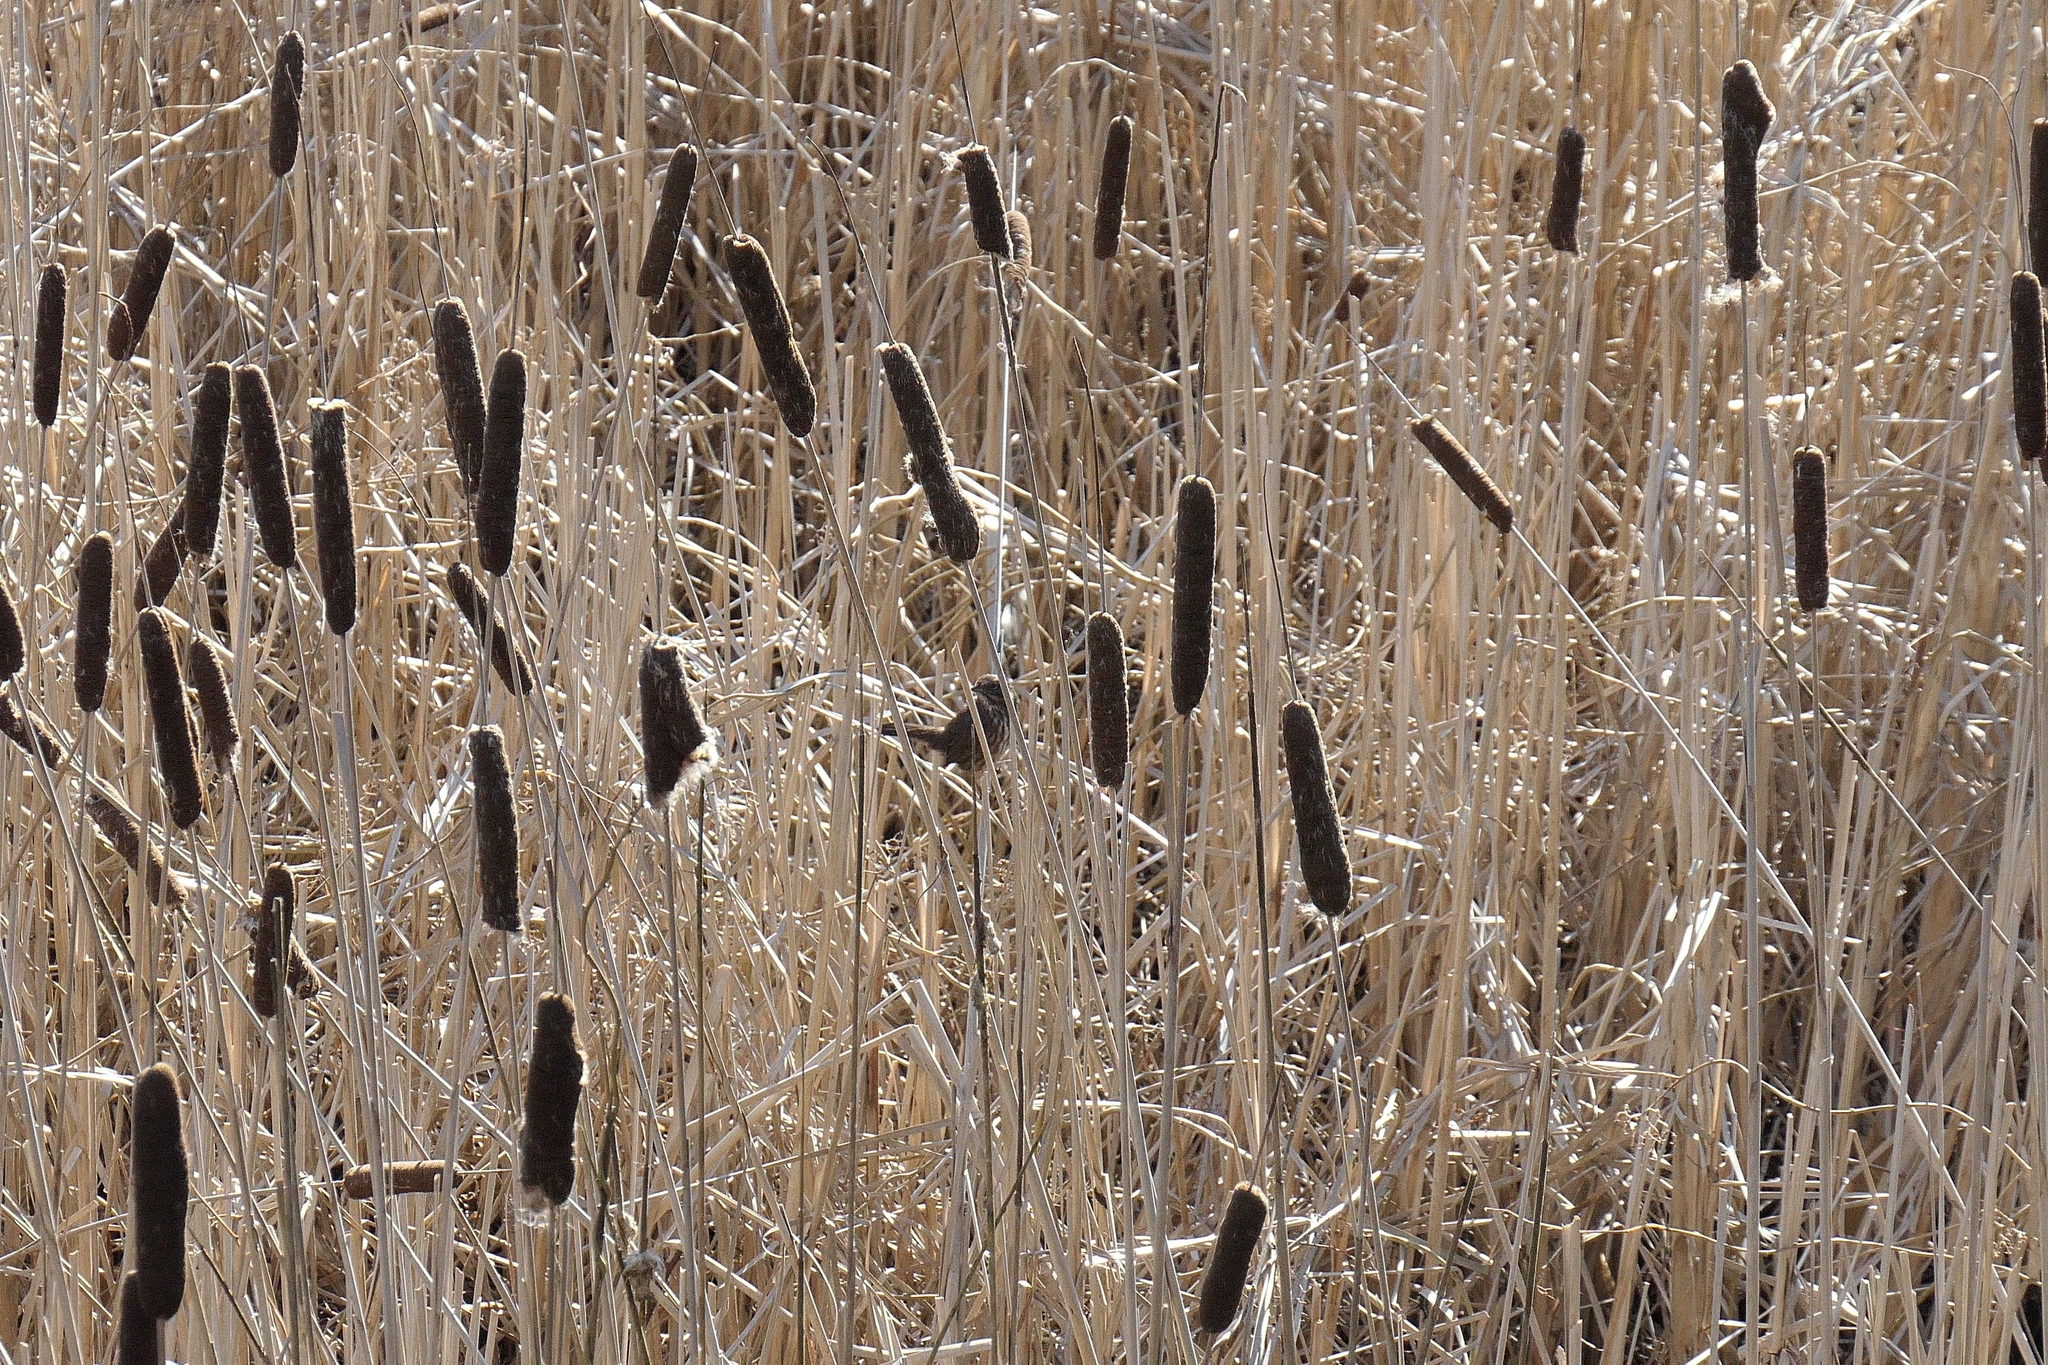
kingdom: Animalia
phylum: Chordata
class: Aves
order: Passeriformes
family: Passerellidae
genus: Melospiza
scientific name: Melospiza melodia
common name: Song sparrow
